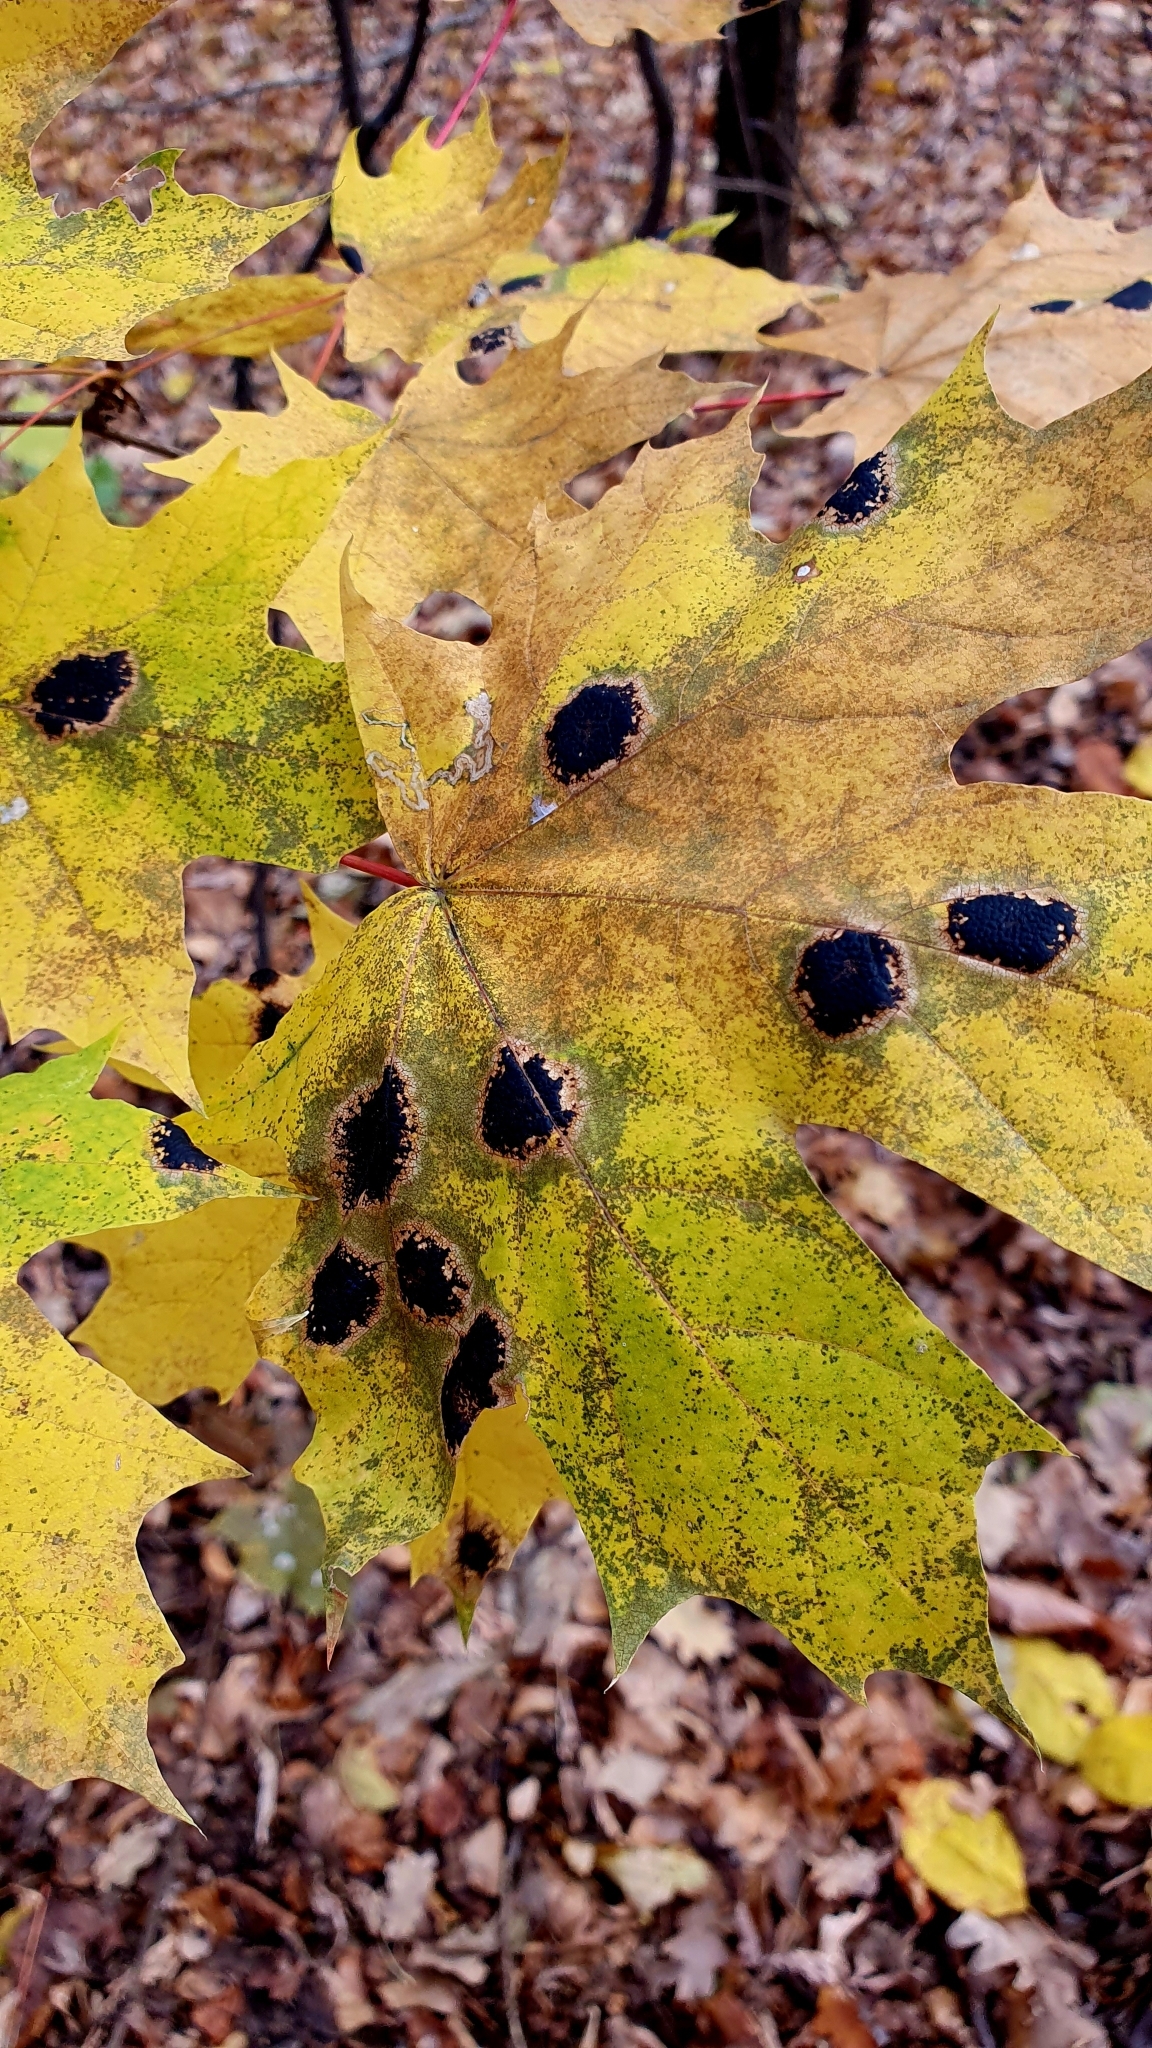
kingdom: Fungi
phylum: Ascomycota
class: Leotiomycetes
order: Rhytismatales
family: Rhytismataceae
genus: Rhytisma
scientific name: Rhytisma acerinum
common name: European tar spot
